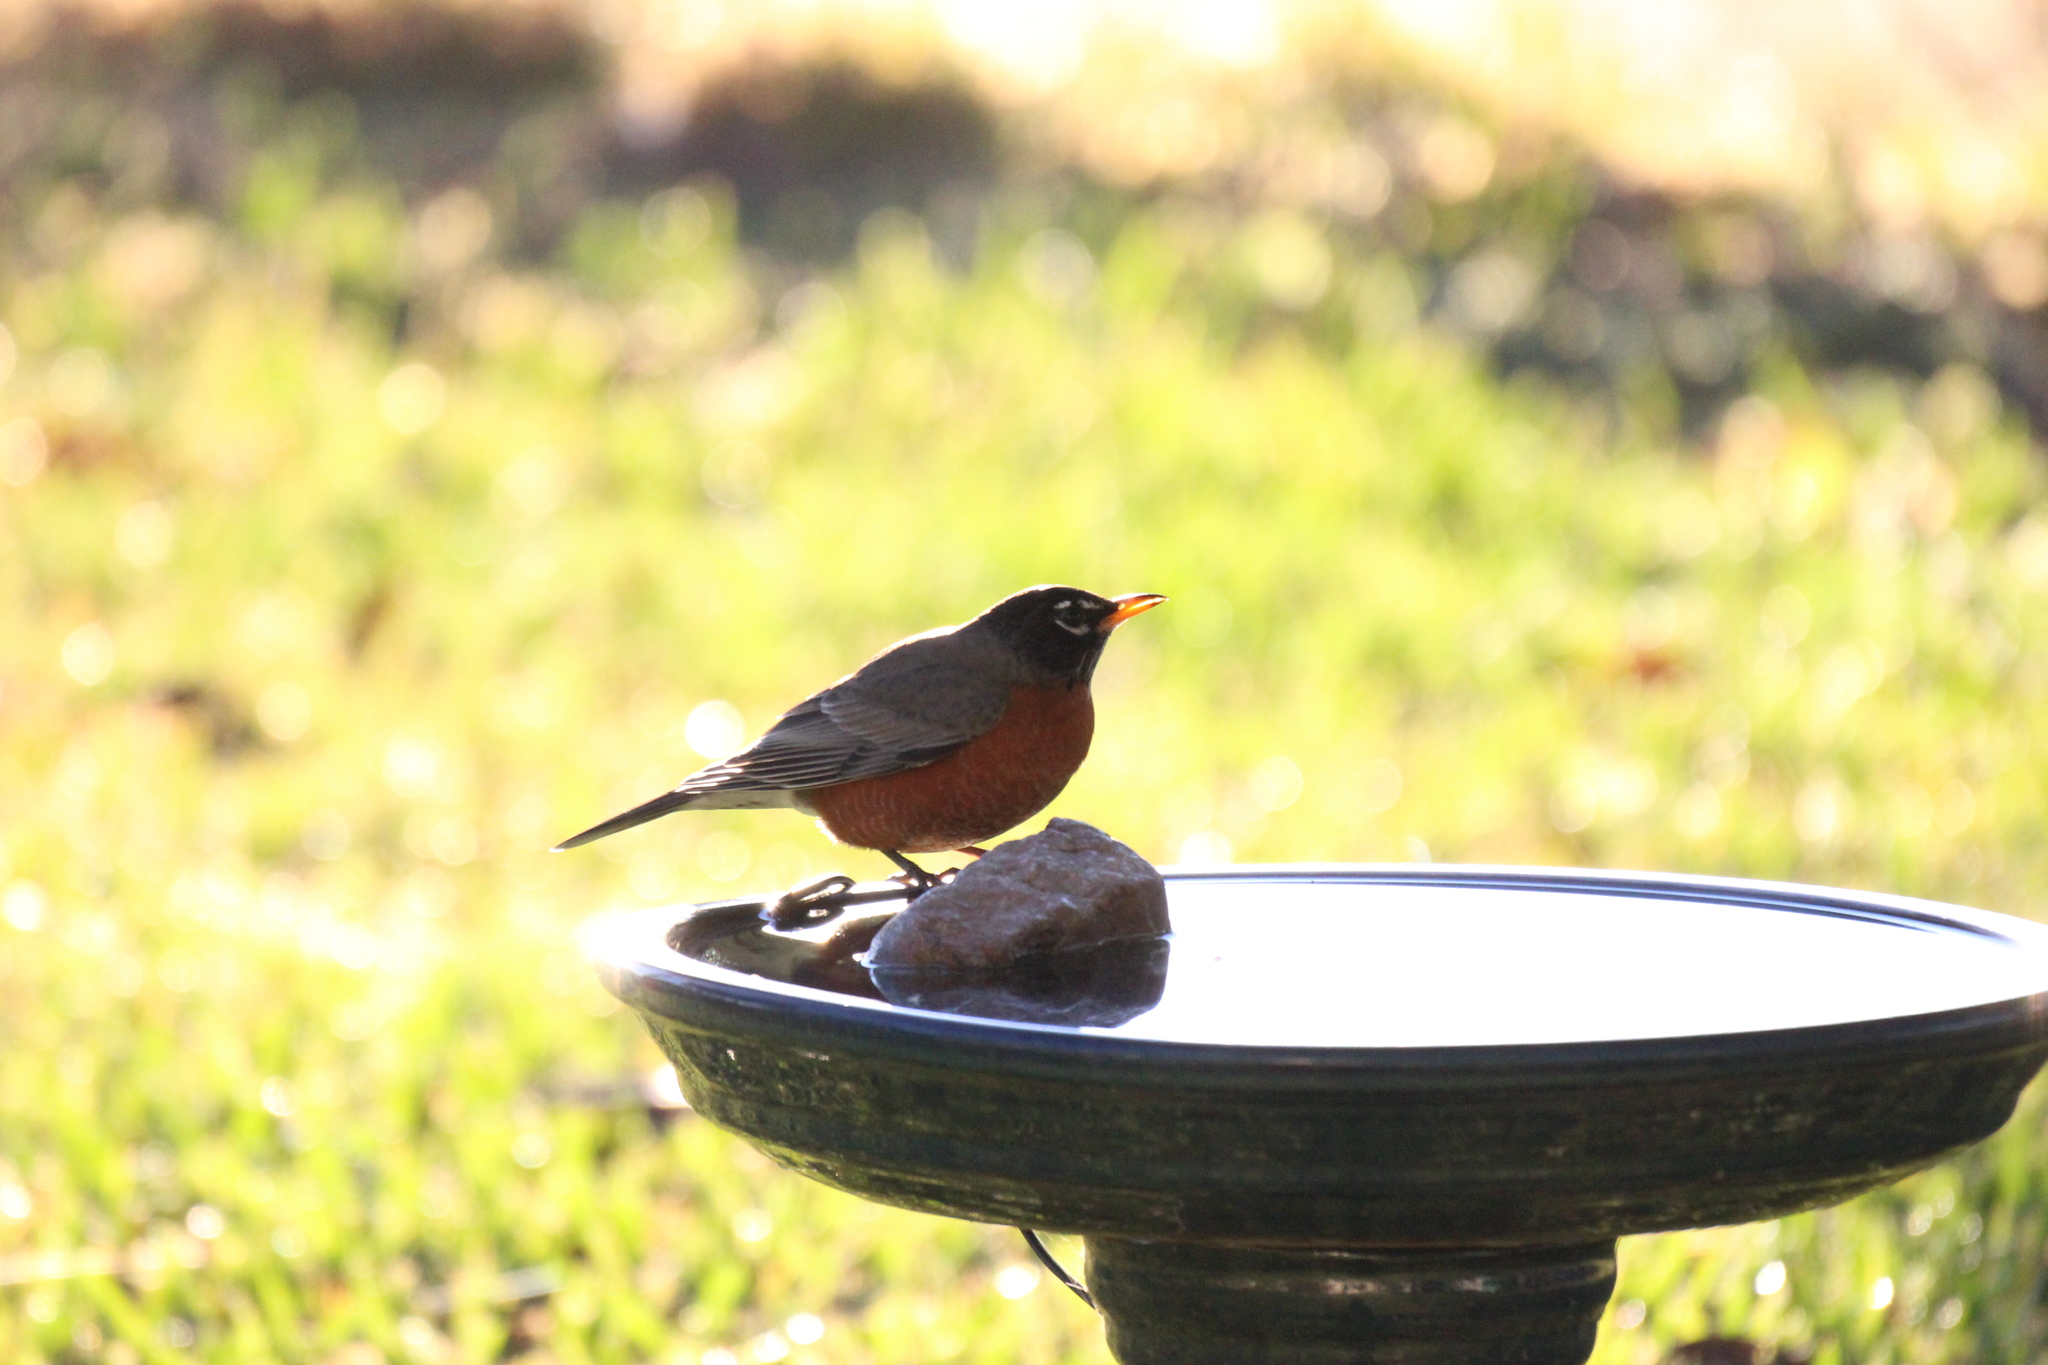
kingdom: Animalia
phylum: Chordata
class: Aves
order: Passeriformes
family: Turdidae
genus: Turdus
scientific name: Turdus migratorius
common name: American robin
